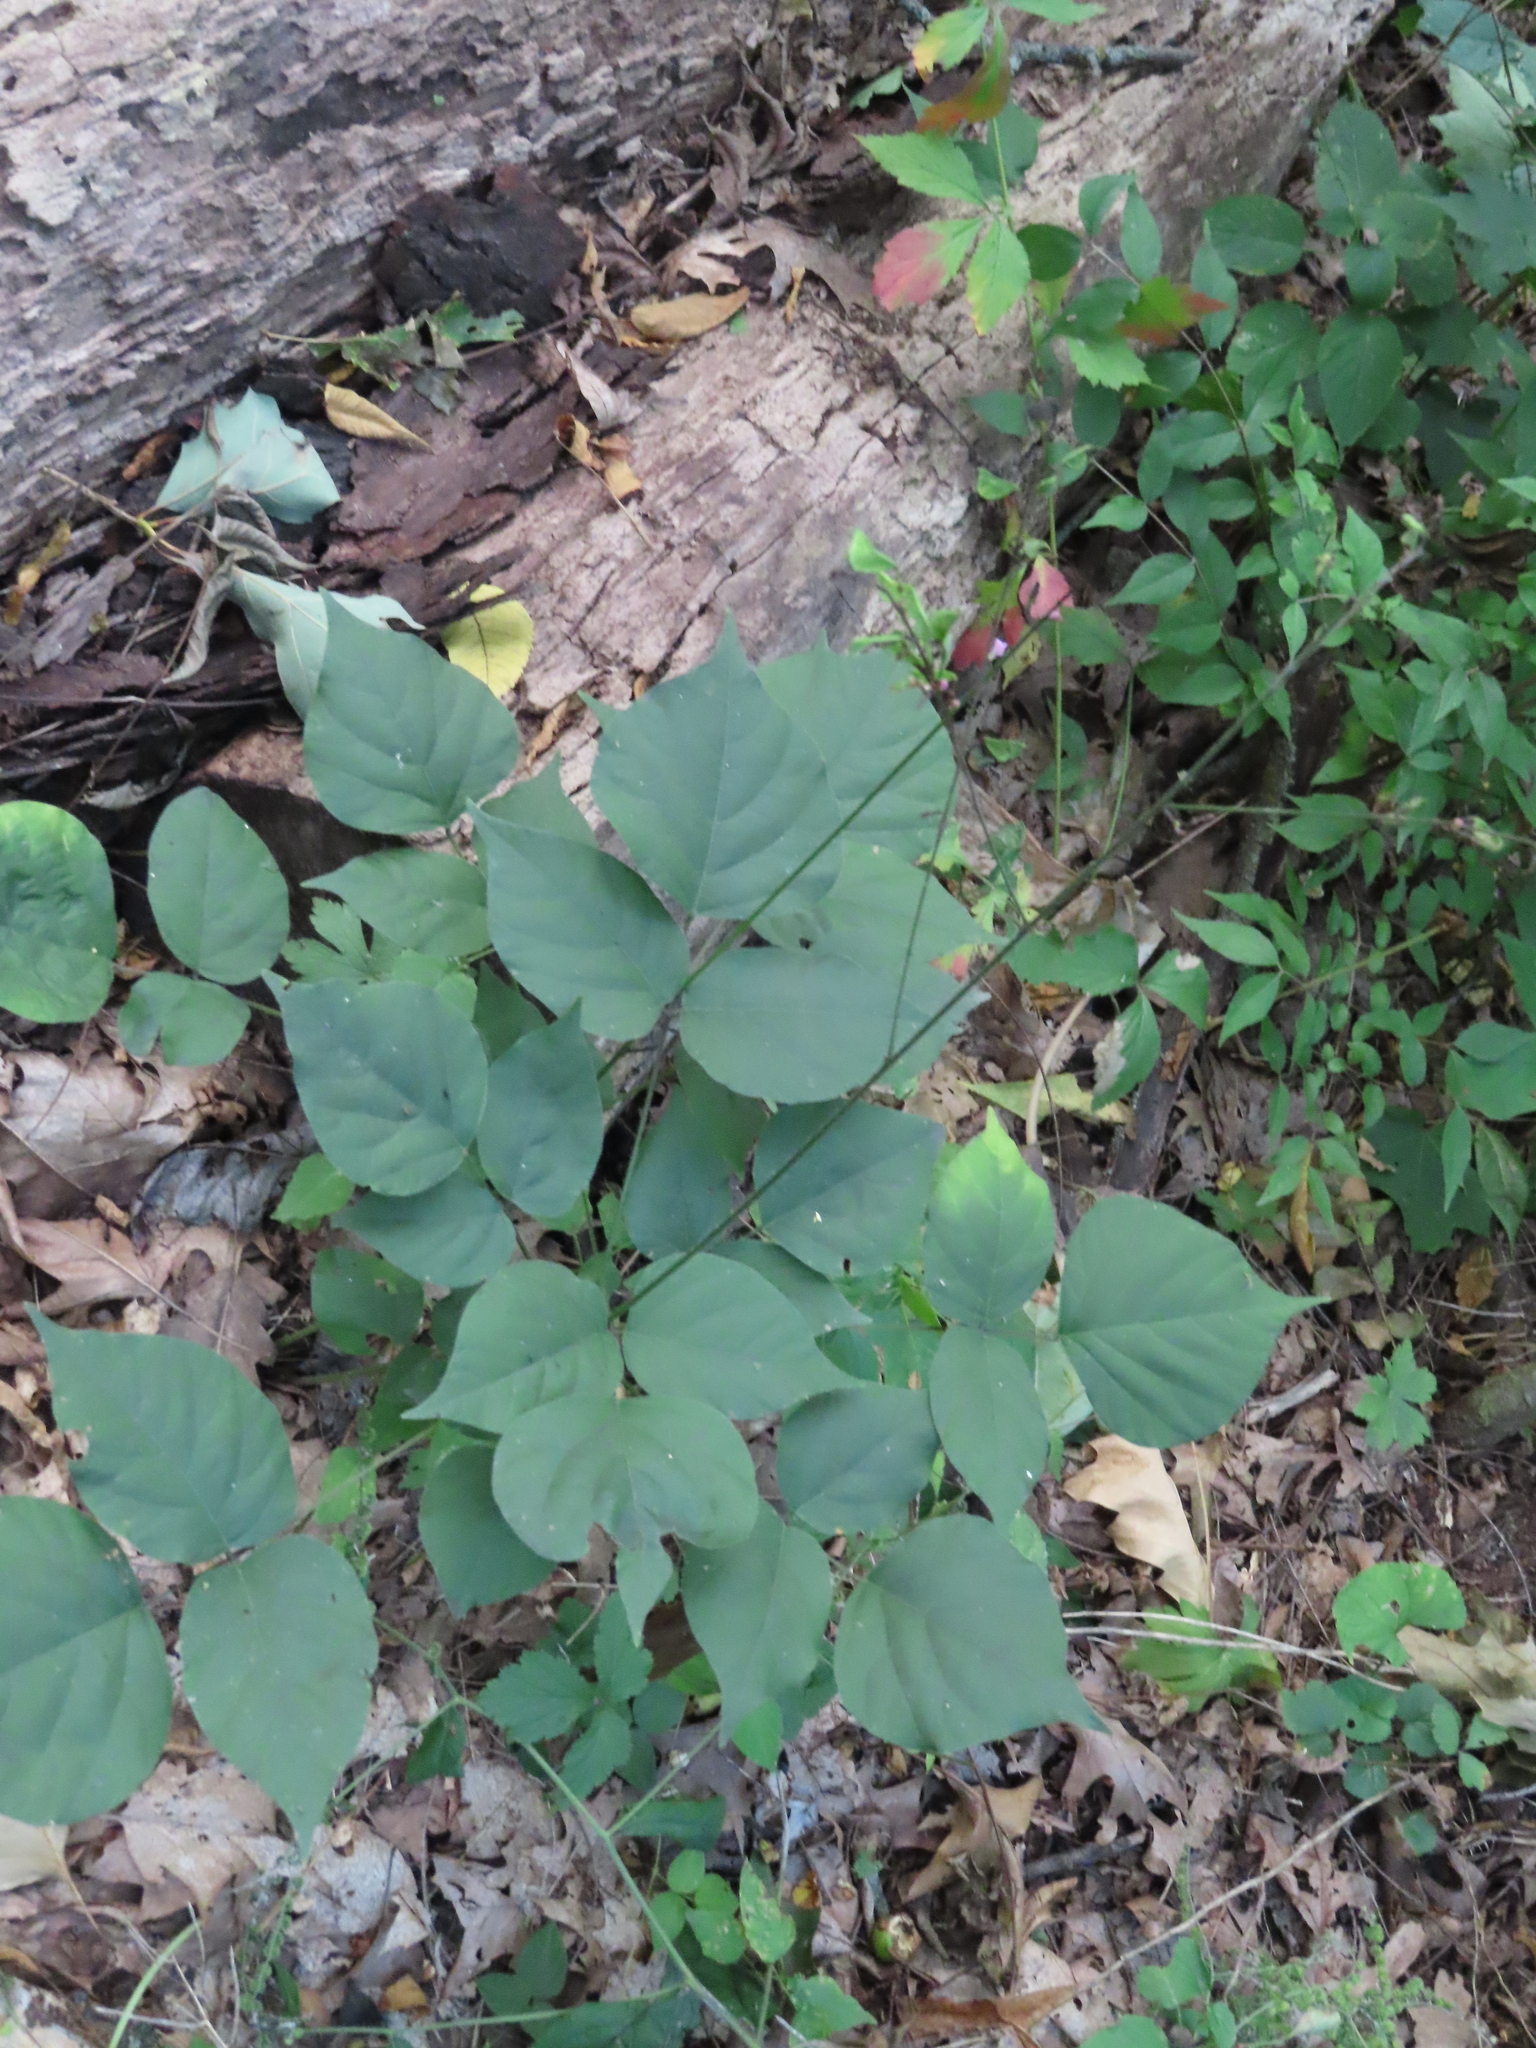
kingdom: Plantae
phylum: Tracheophyta
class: Magnoliopsida
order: Fabales
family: Fabaceae
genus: Hylodesmum
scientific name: Hylodesmum glutinosum
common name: Clustered-leaved tick-trefoil
